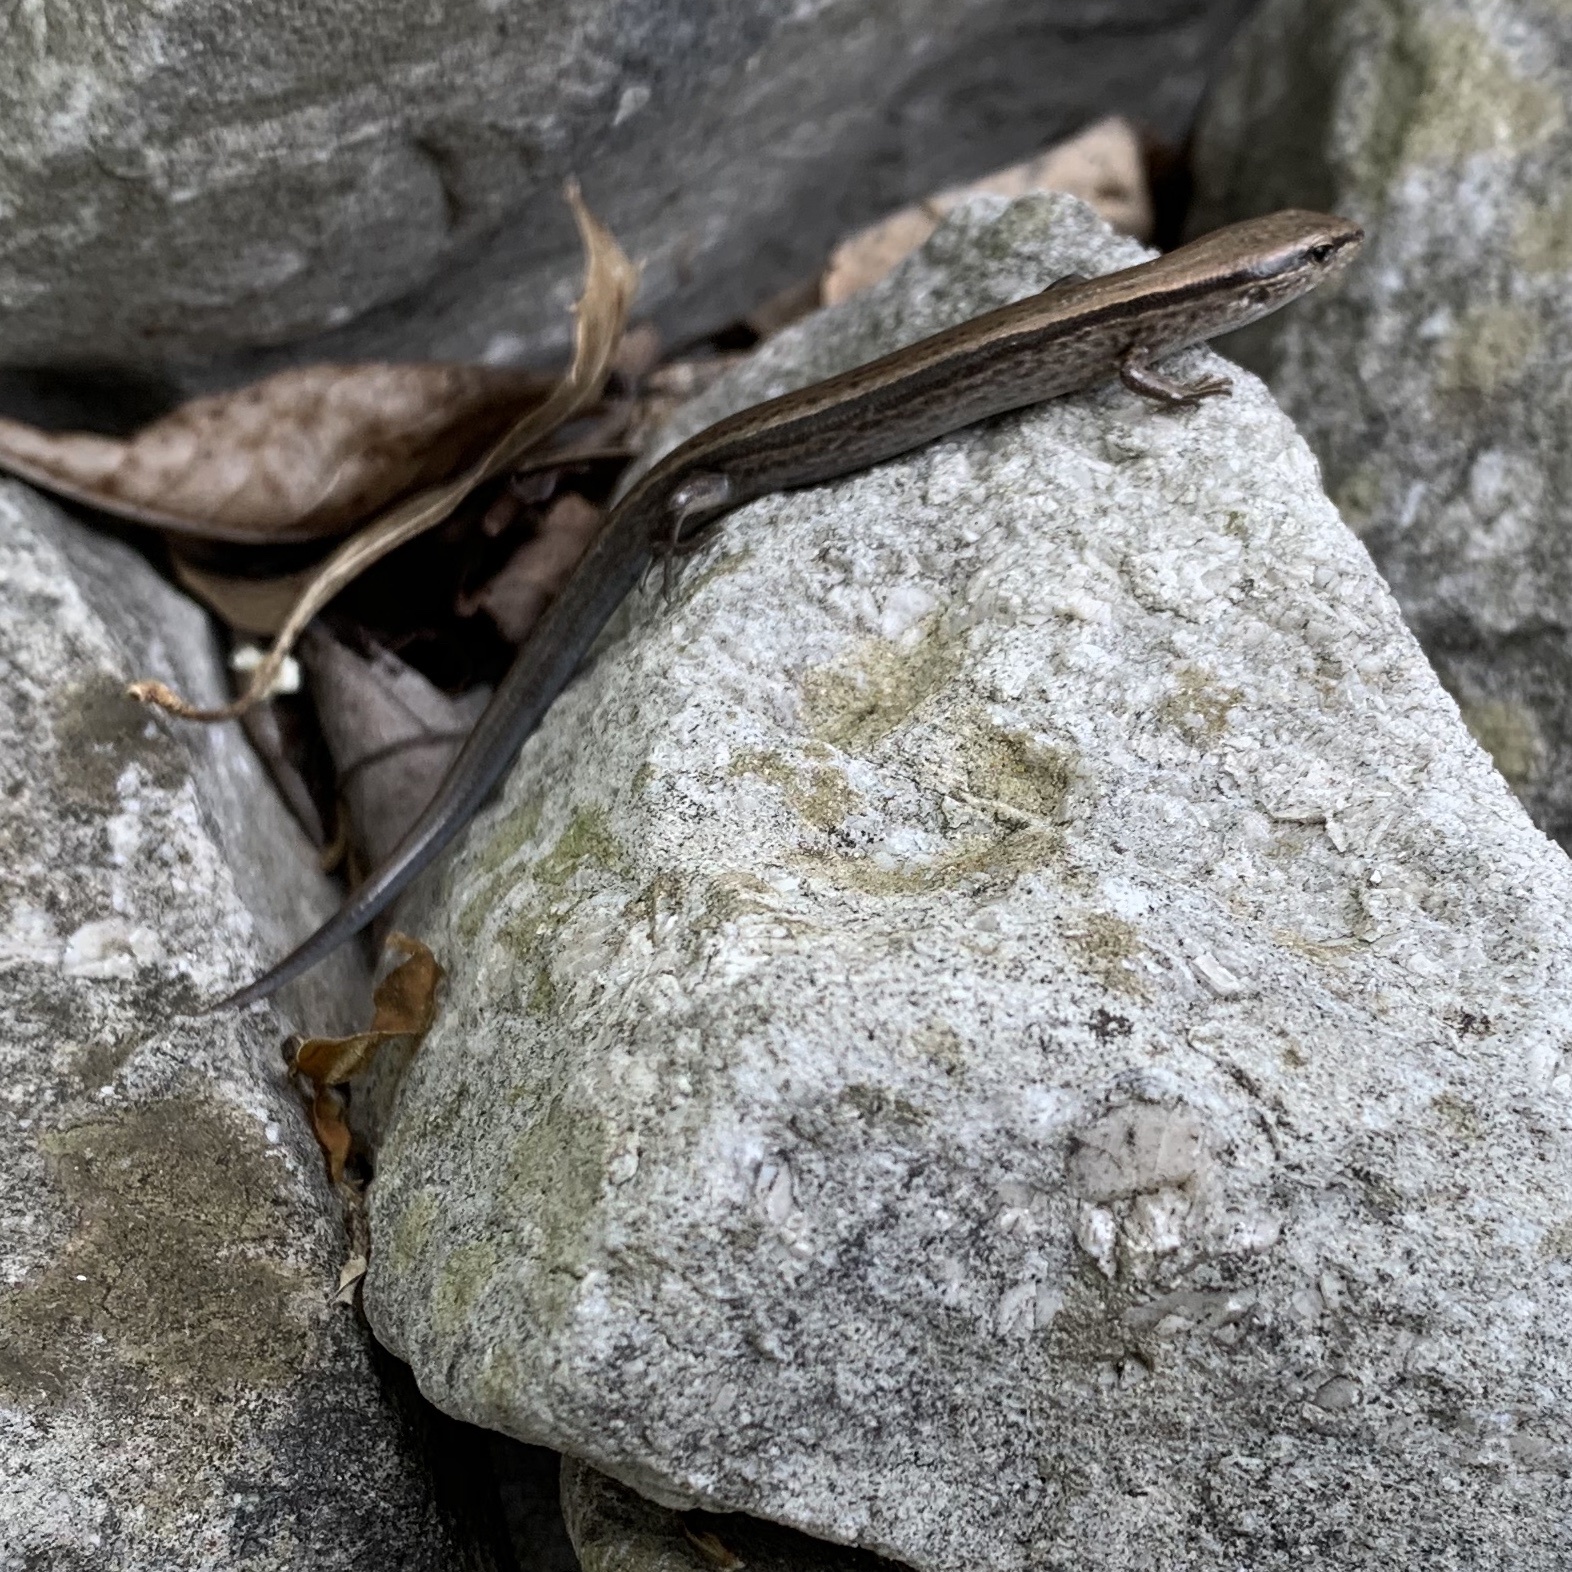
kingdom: Animalia
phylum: Chordata
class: Squamata
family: Scincidae
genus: Scincella
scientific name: Scincella lateralis
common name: Ground skink
